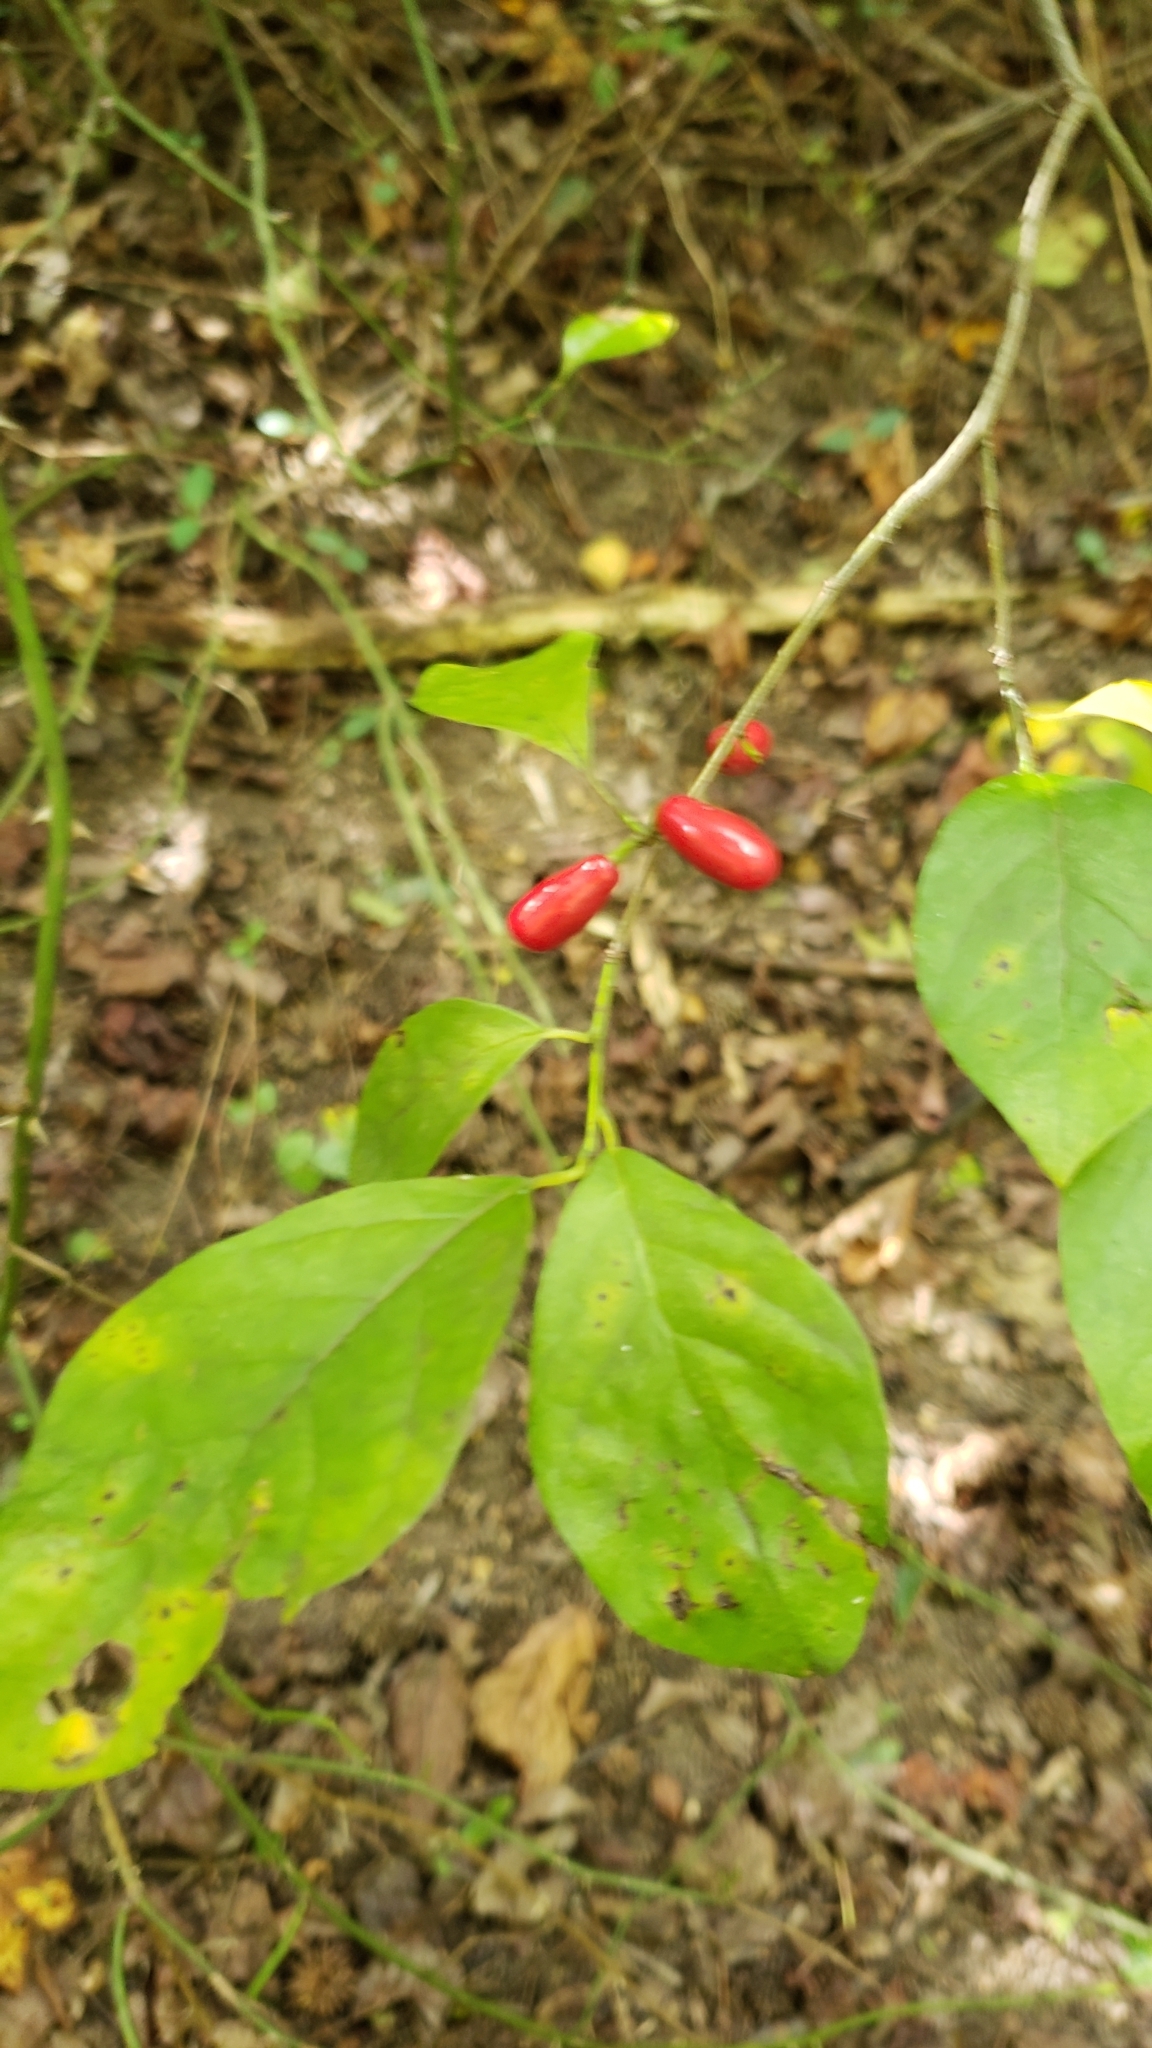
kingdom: Plantae
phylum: Tracheophyta
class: Magnoliopsida
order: Laurales
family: Lauraceae
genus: Lindera
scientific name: Lindera benzoin
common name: Spicebush
